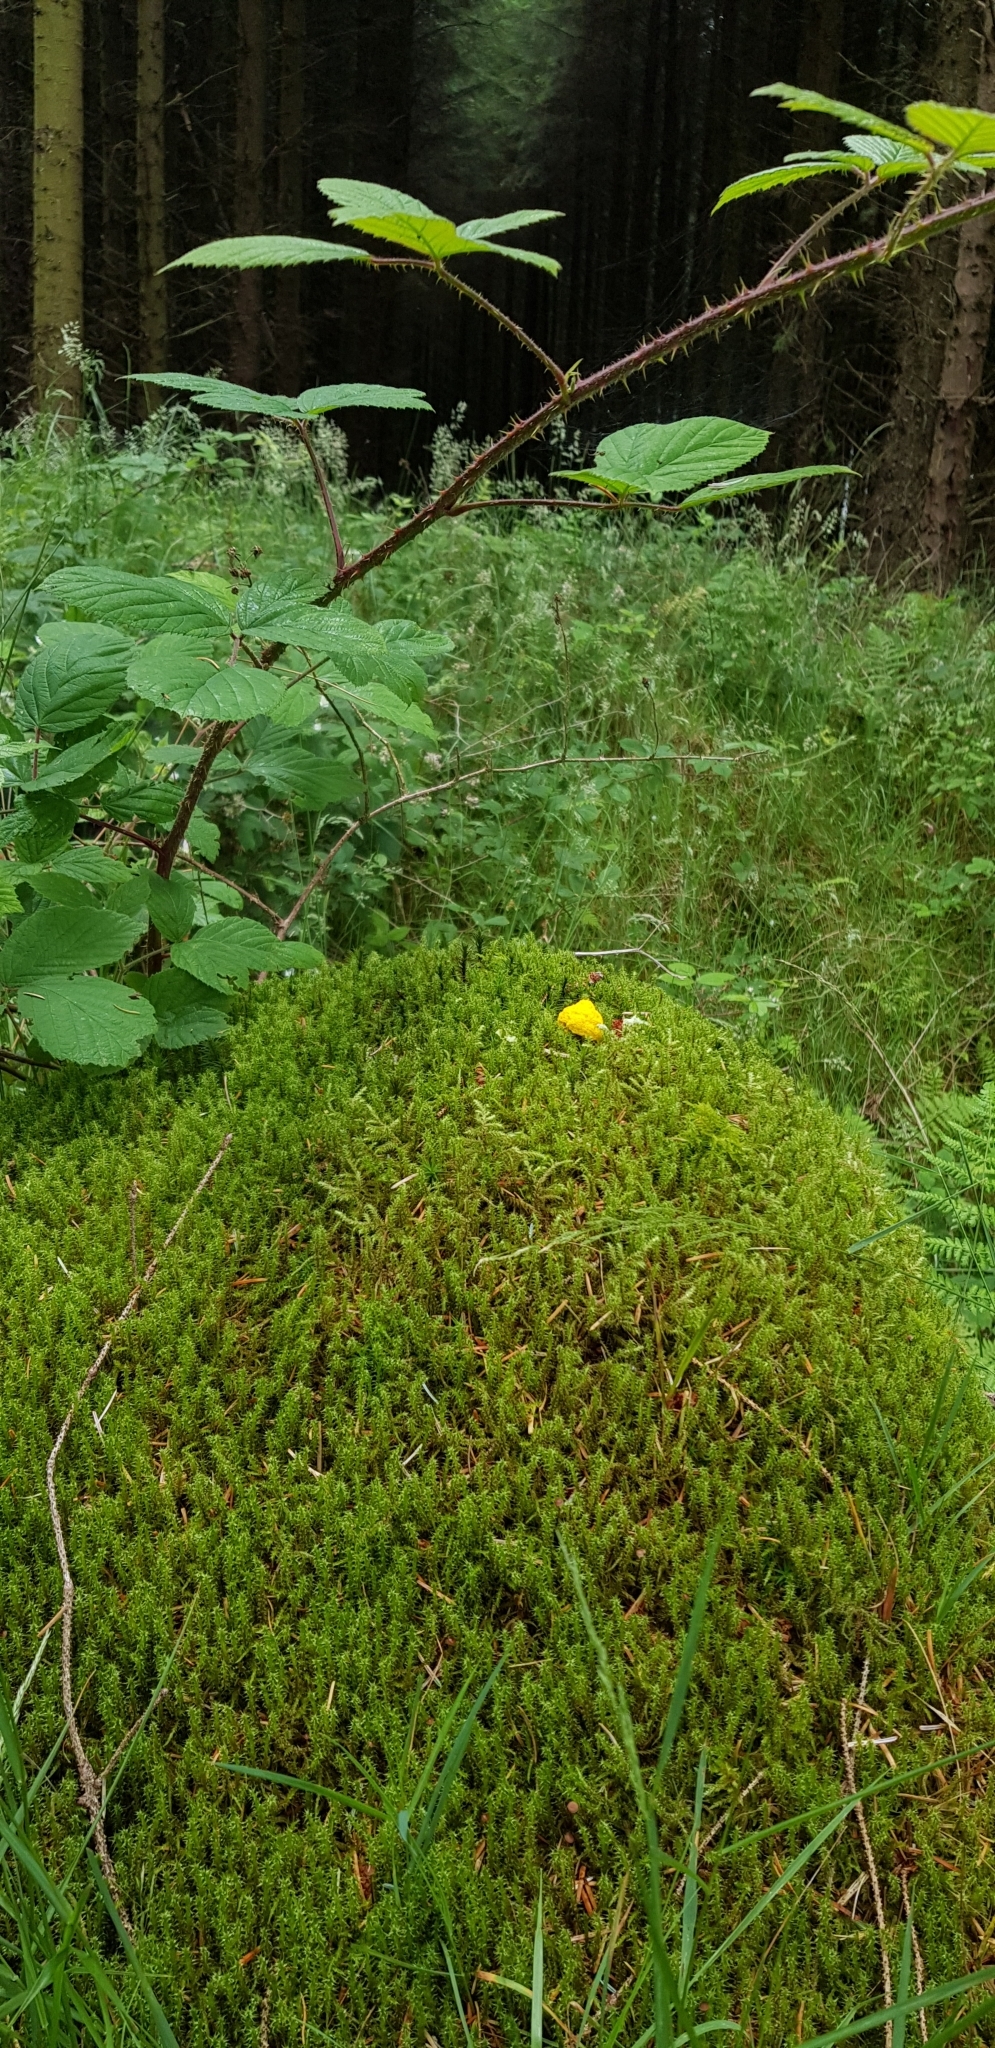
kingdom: Plantae
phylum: Bryophyta
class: Bryopsida
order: Hypnales
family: Hylocomiaceae
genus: Rhytidiadelphus
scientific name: Rhytidiadelphus loreus
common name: Lanky moss
